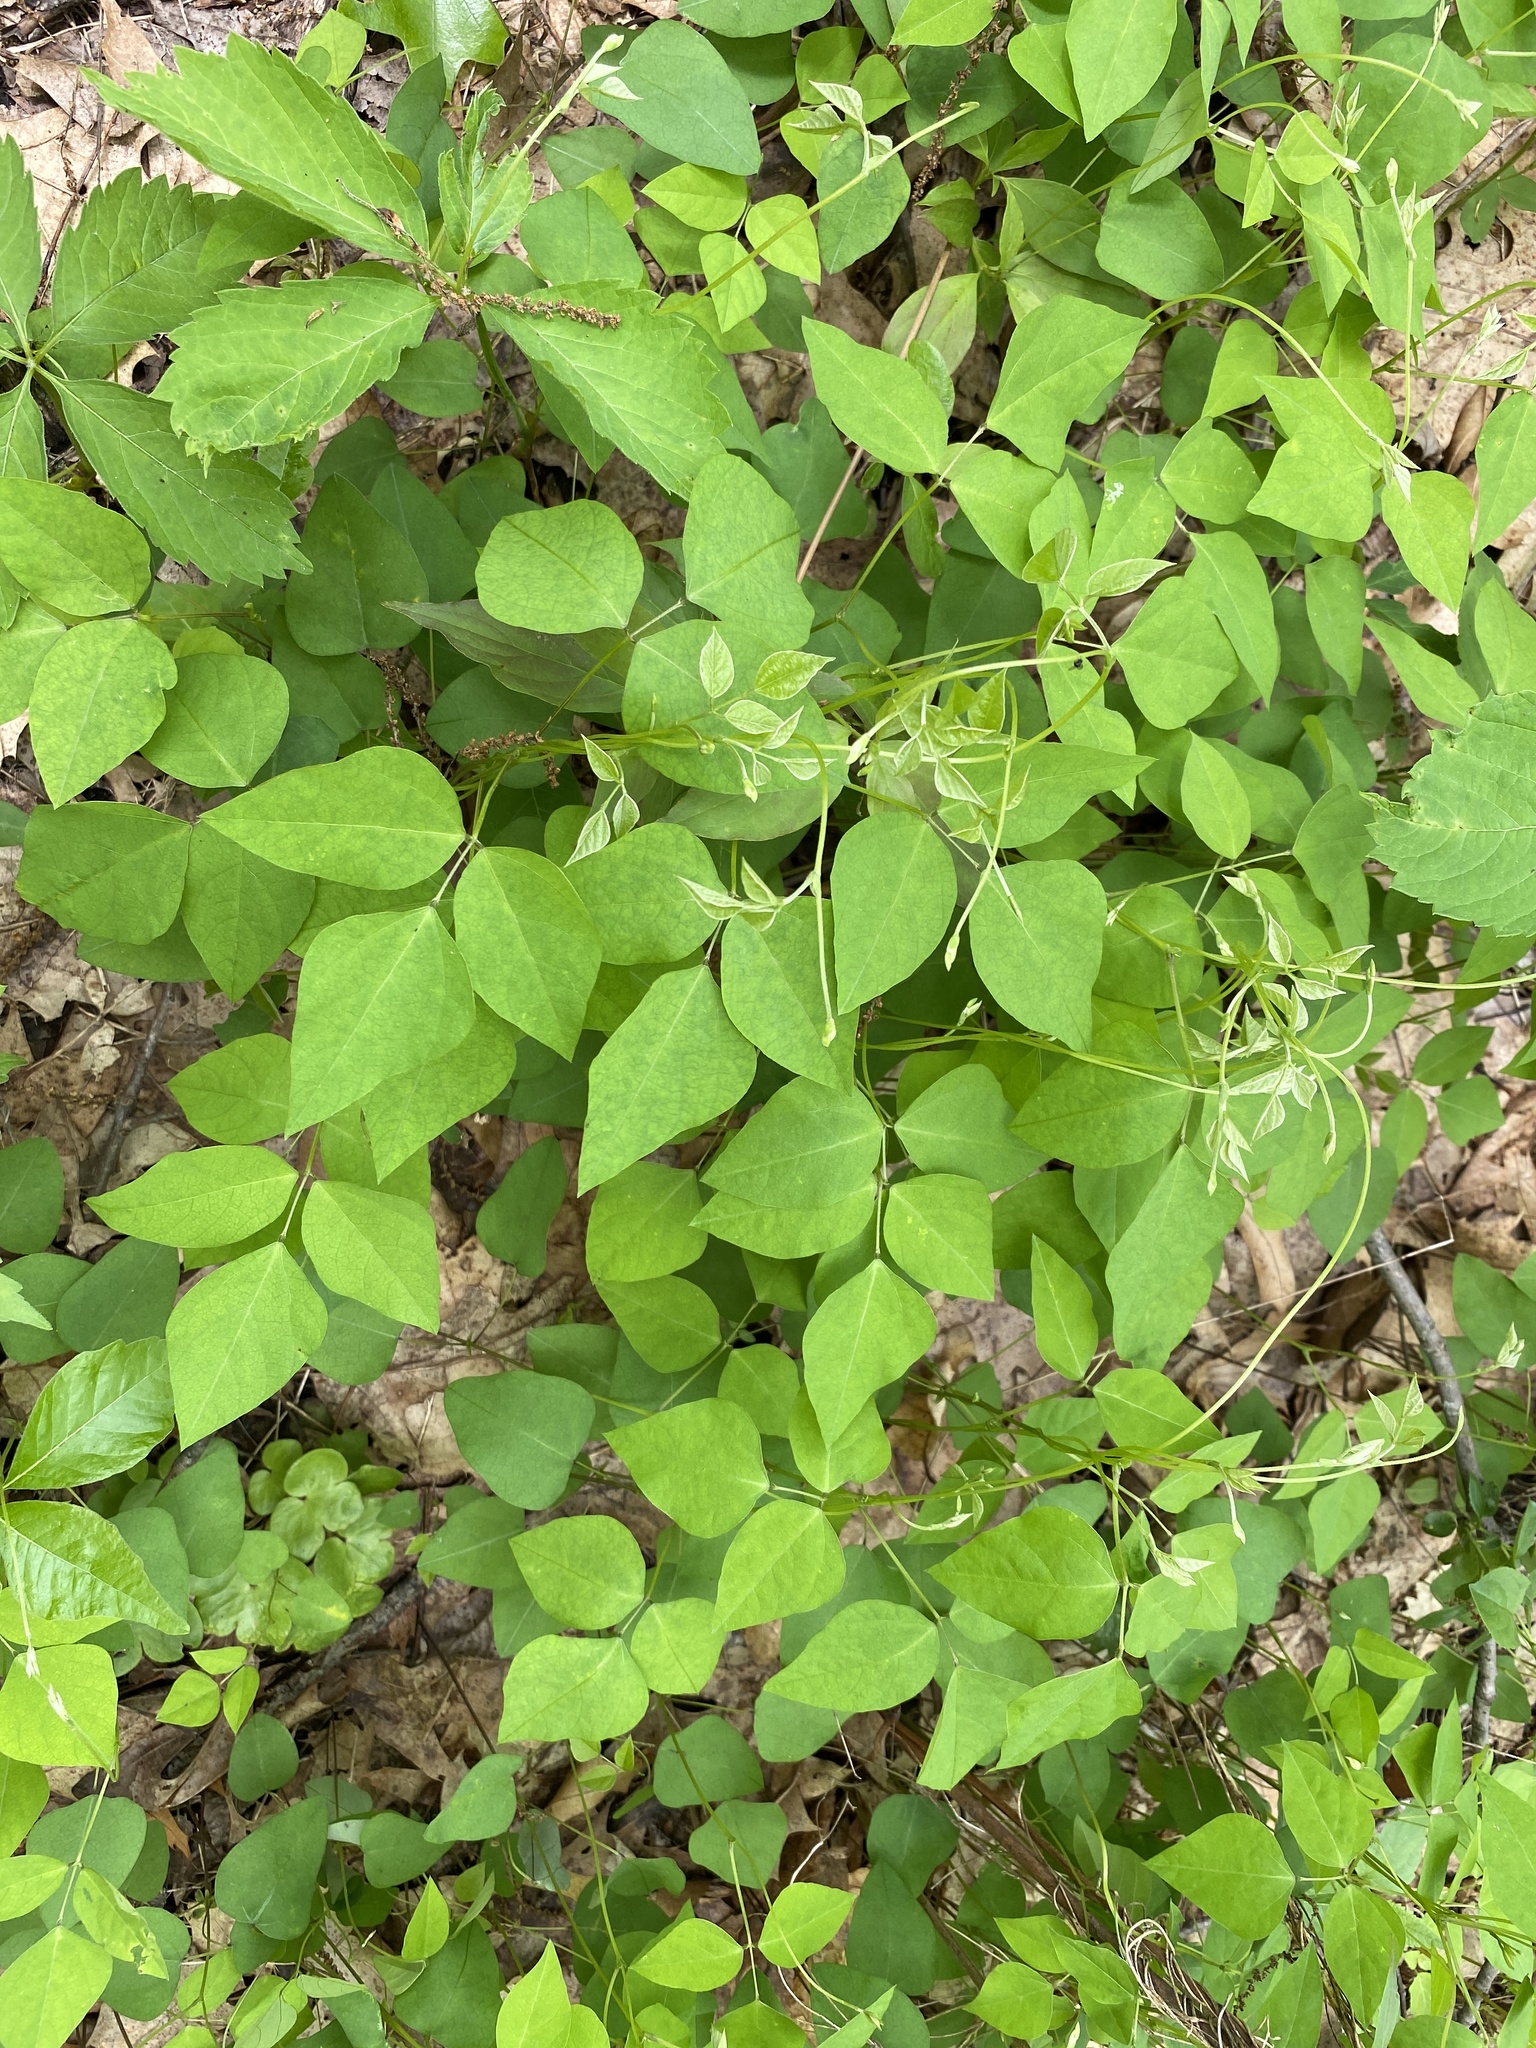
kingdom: Plantae
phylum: Tracheophyta
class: Magnoliopsida
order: Fabales
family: Fabaceae
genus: Amphicarpaea
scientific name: Amphicarpaea bracteata
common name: American hog peanut
